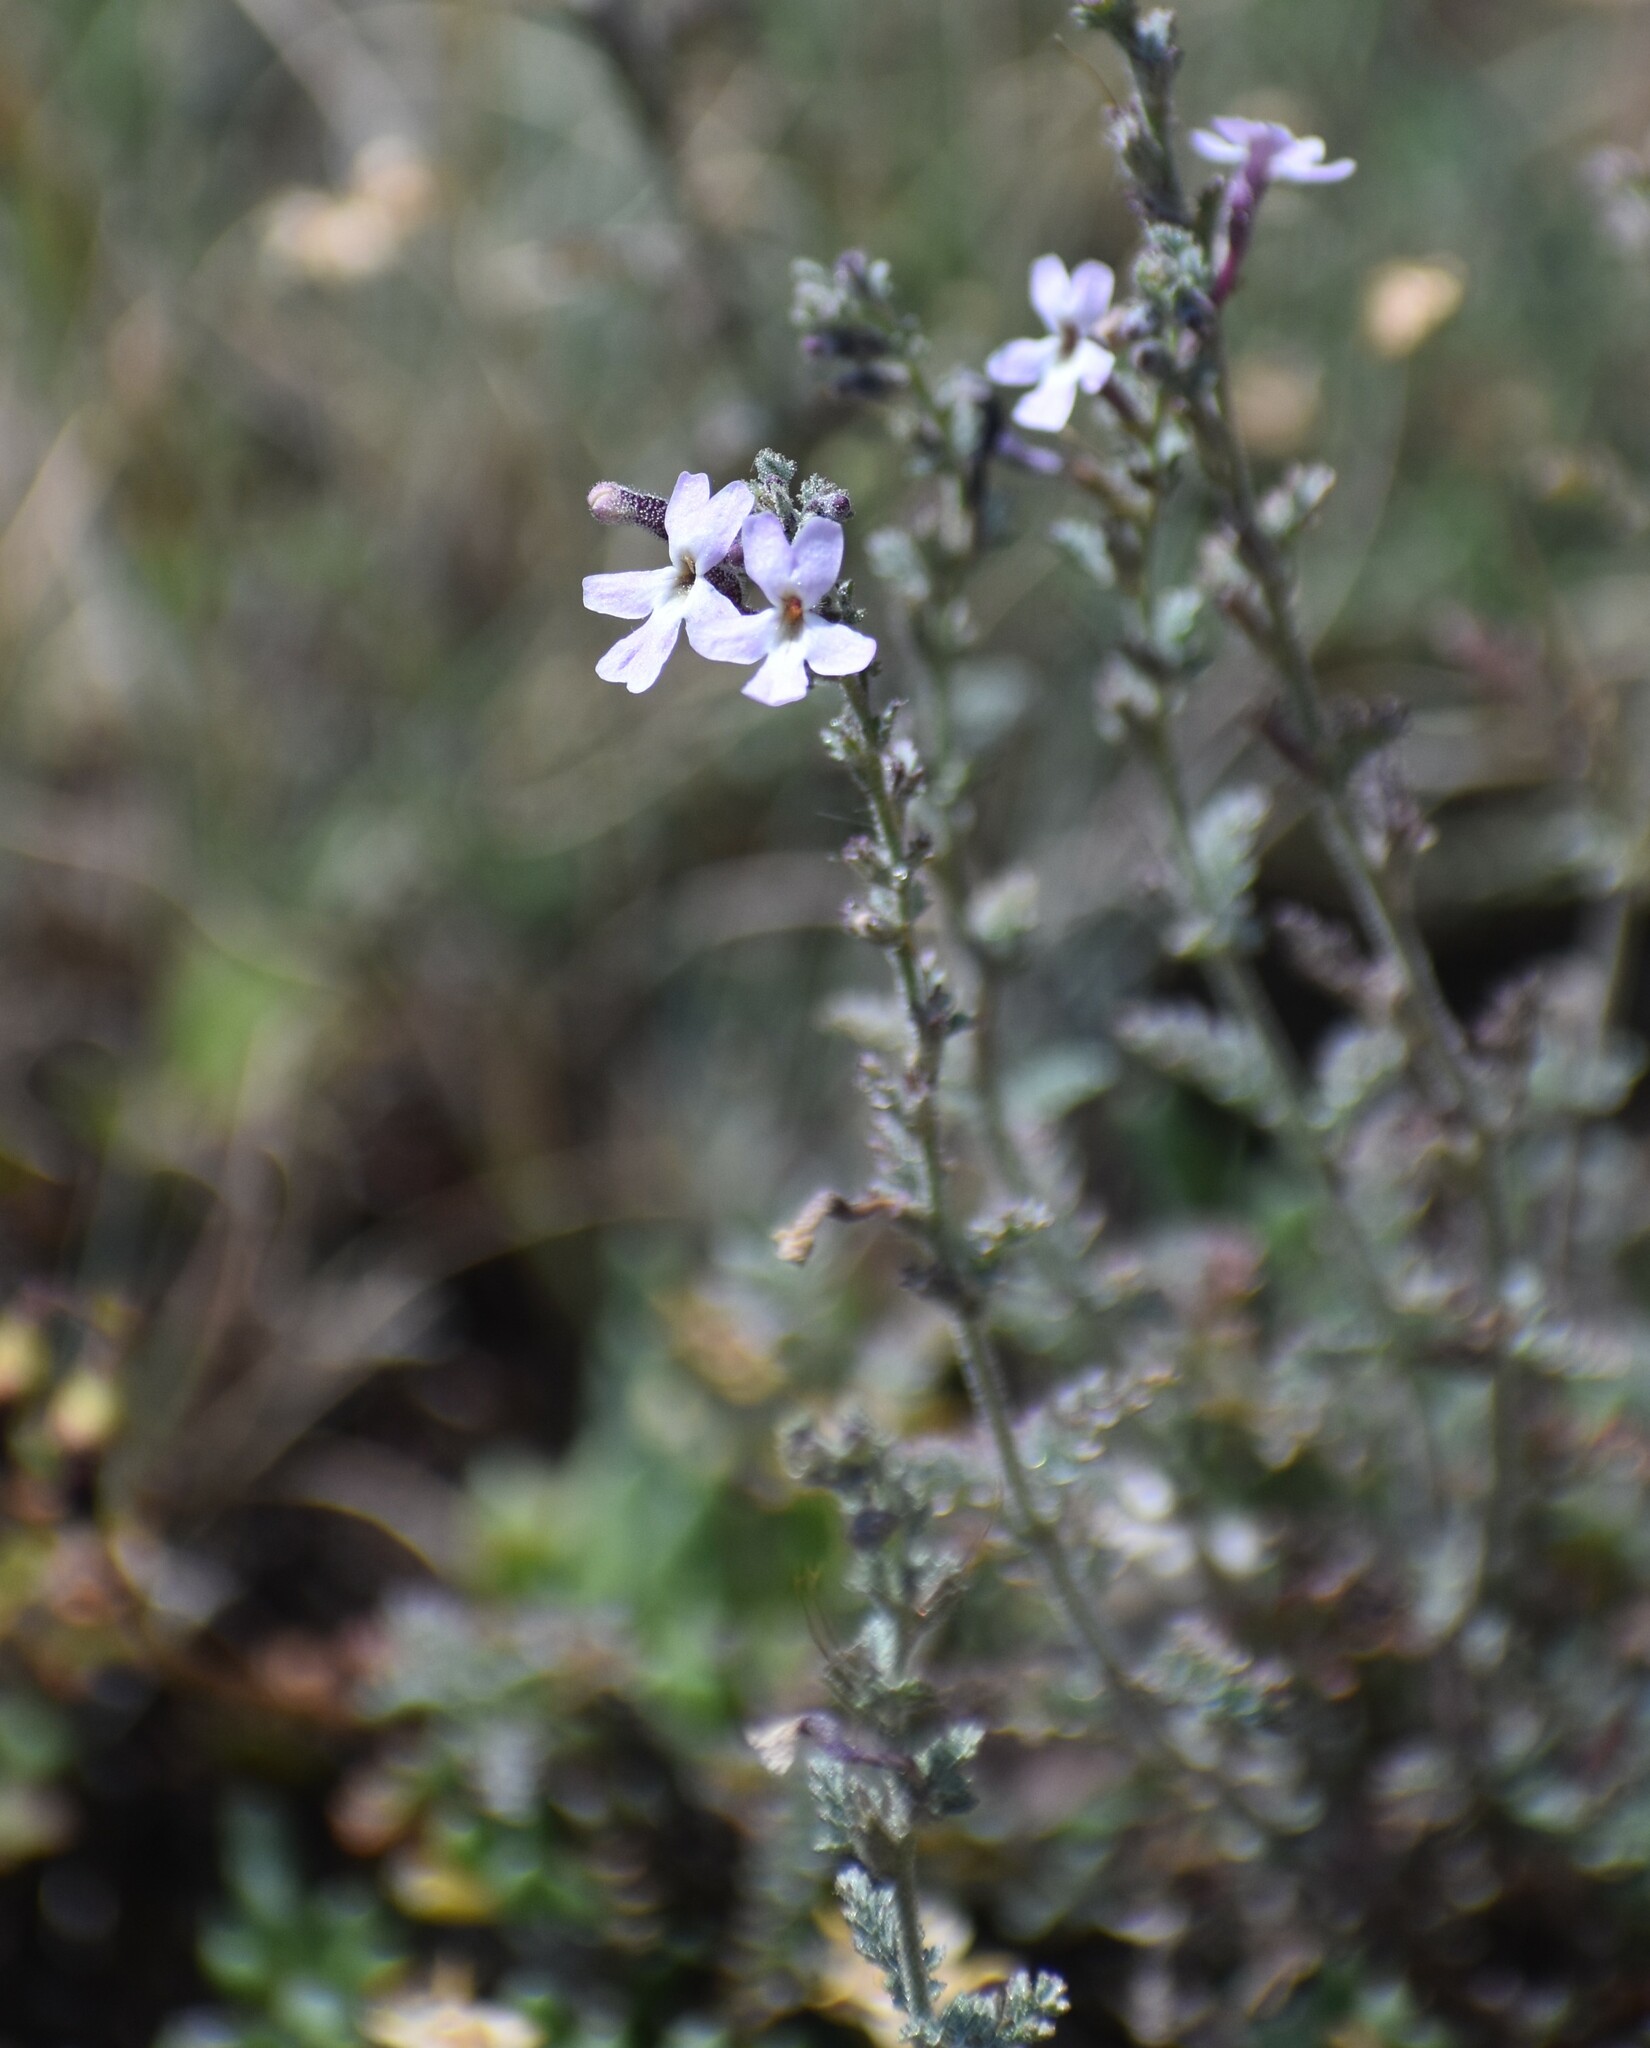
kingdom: Plantae
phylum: Tracheophyta
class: Magnoliopsida
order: Lamiales
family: Scrophulariaceae
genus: Jamesbrittenia
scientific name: Jamesbrittenia pristisepala
